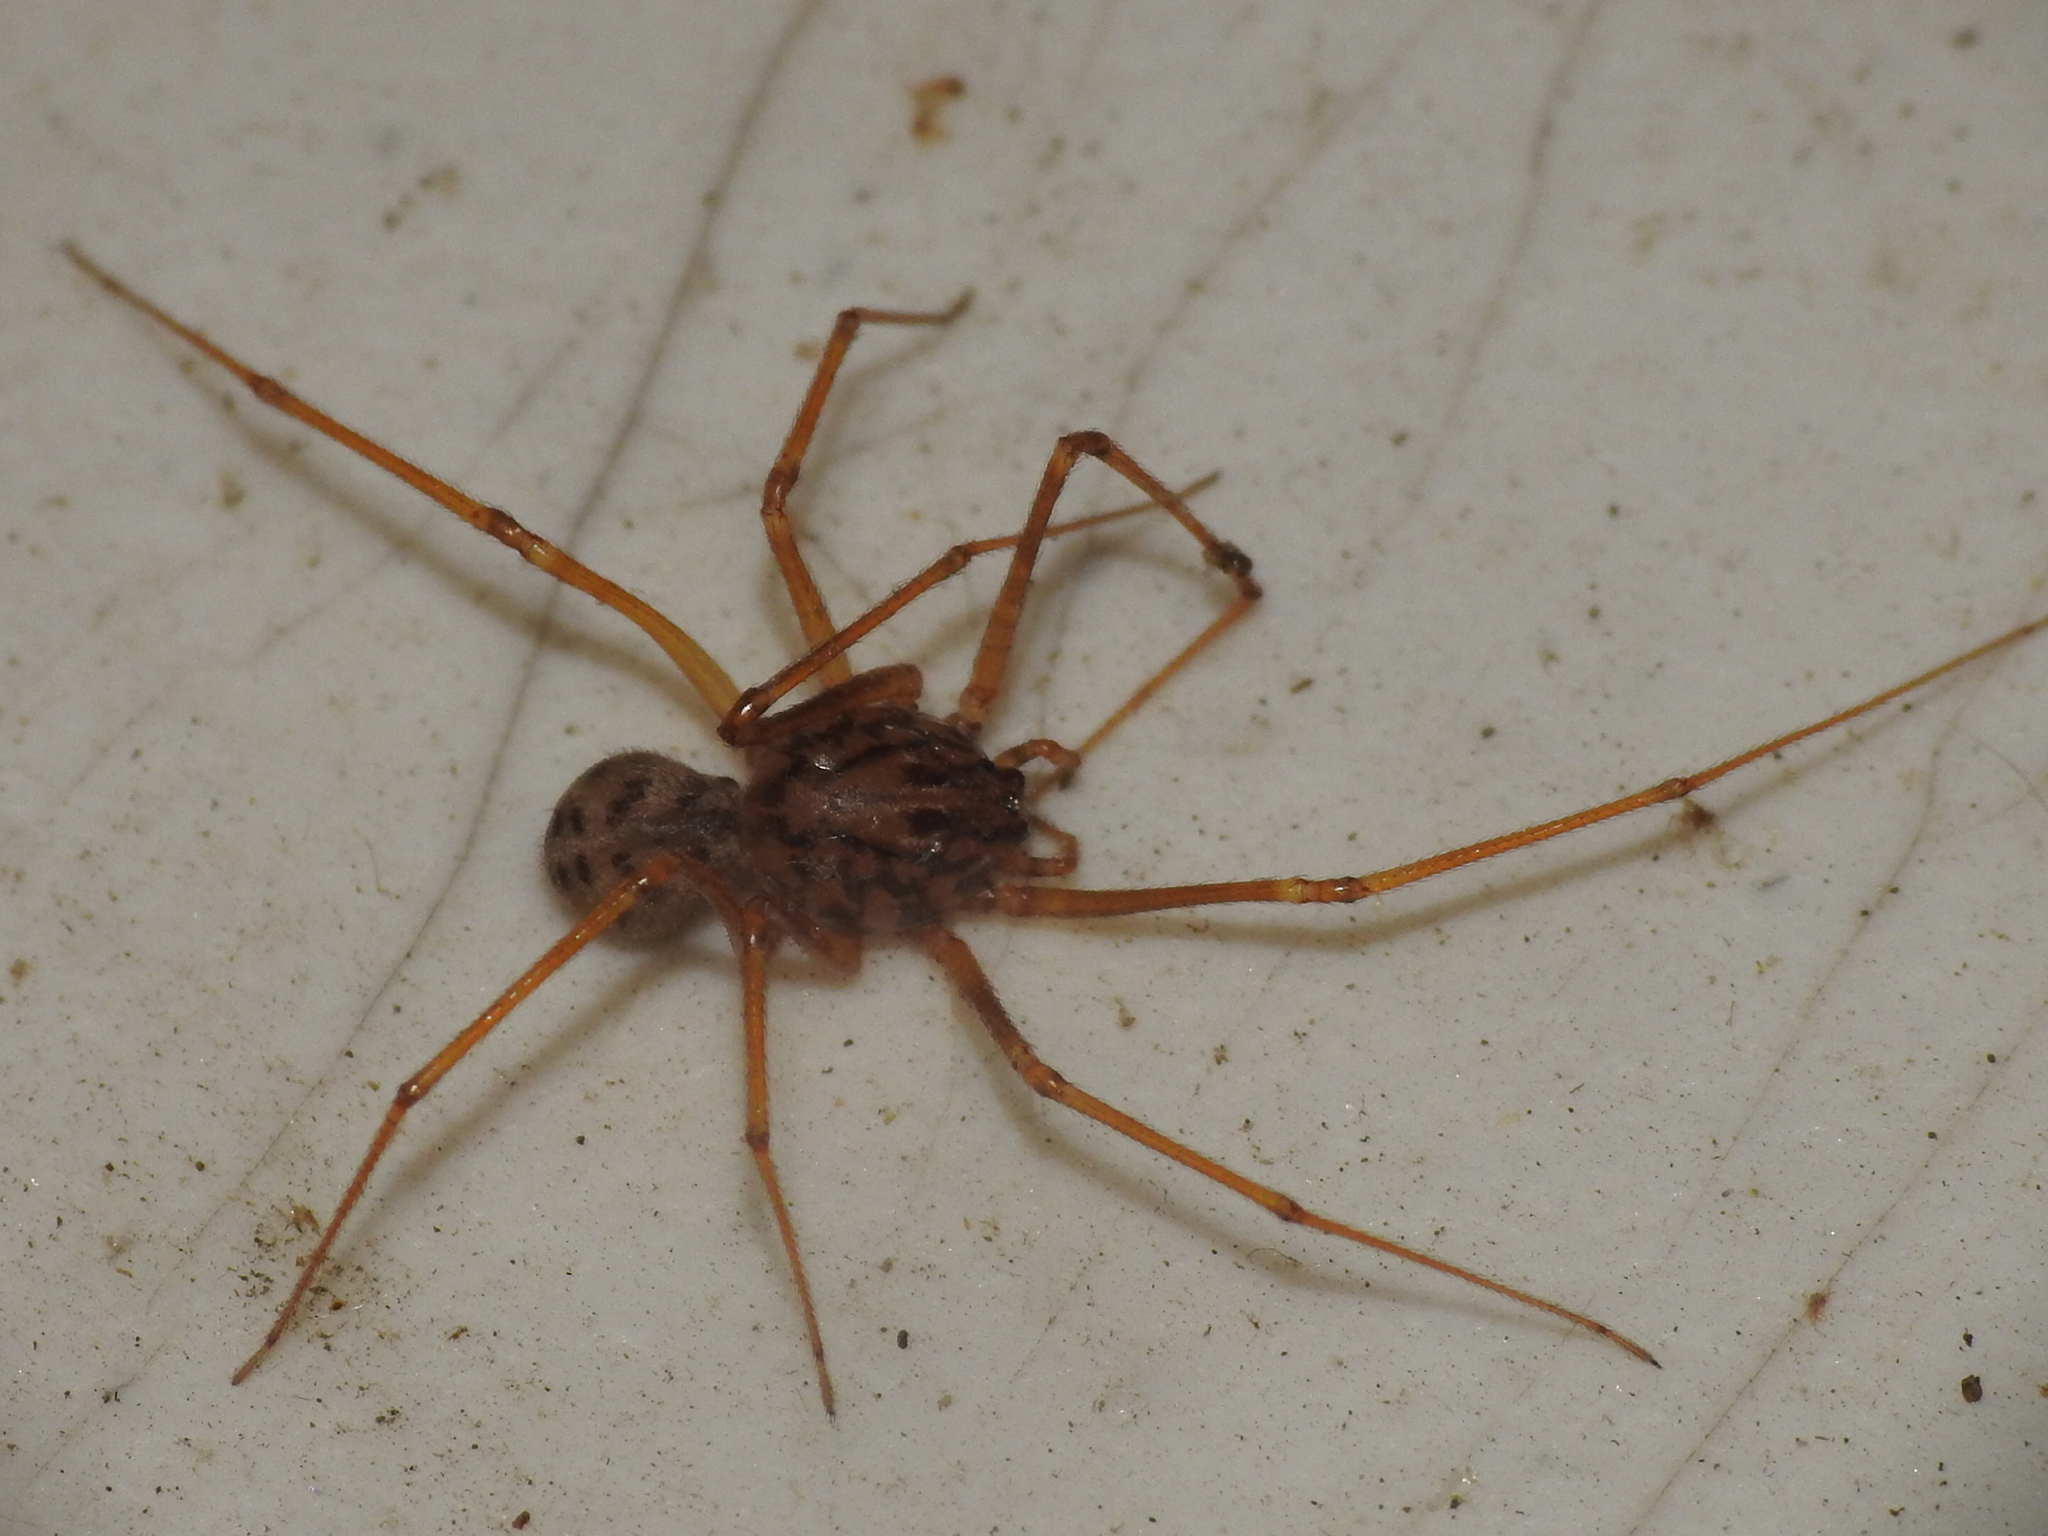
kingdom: Animalia
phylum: Arthropoda
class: Arachnida
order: Araneae
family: Scytodidae
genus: Scytodes
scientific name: Scytodes univittata
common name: Spitting spider
